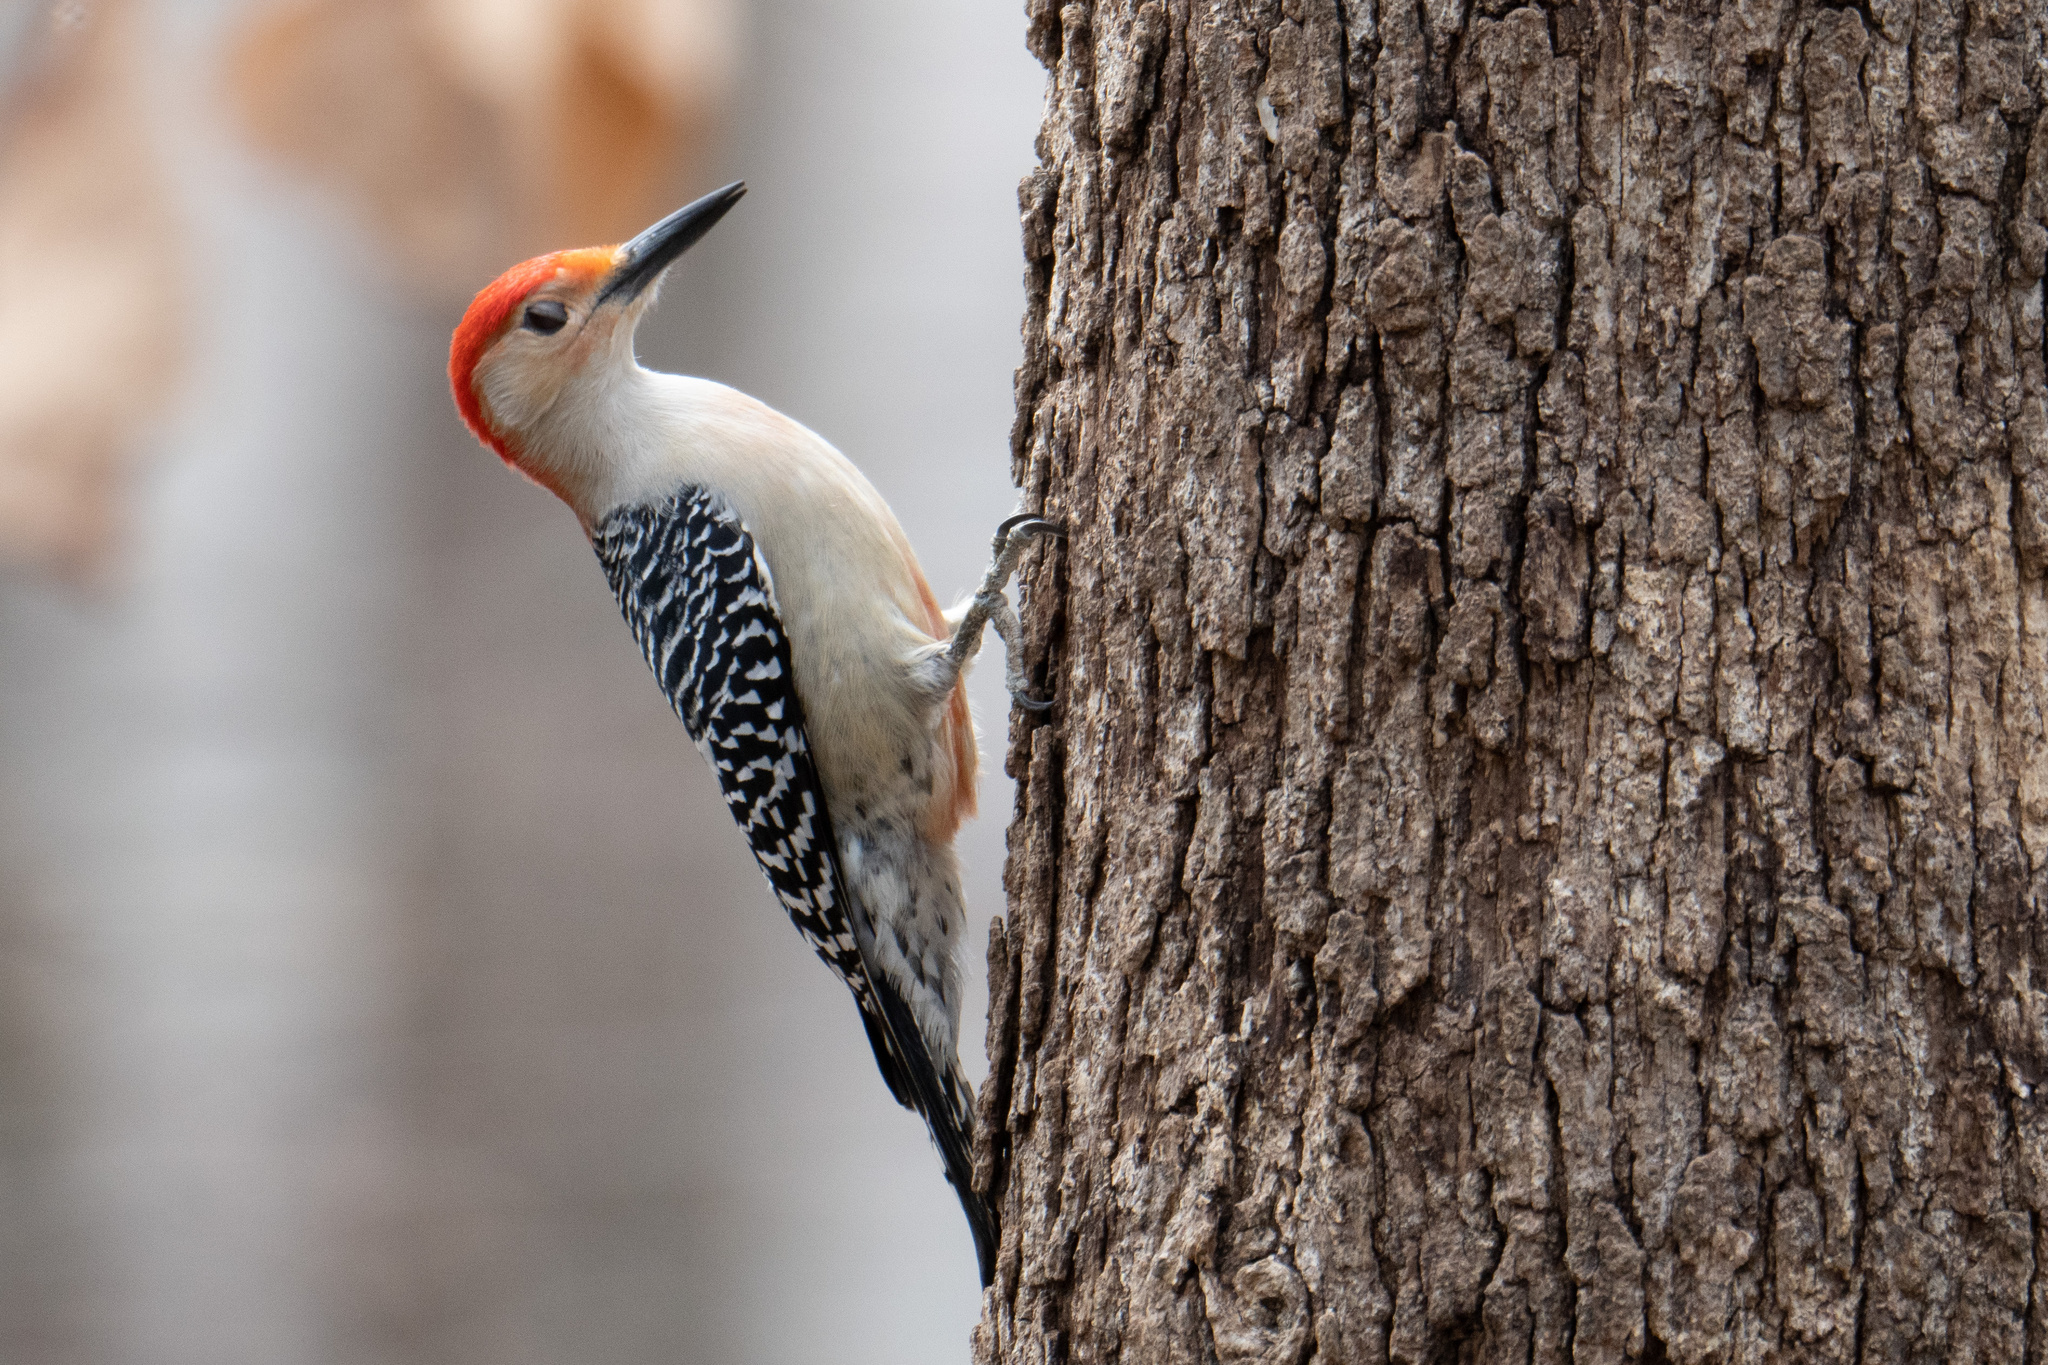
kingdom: Animalia
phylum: Chordata
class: Aves
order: Piciformes
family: Picidae
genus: Melanerpes
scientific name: Melanerpes carolinus
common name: Red-bellied woodpecker
